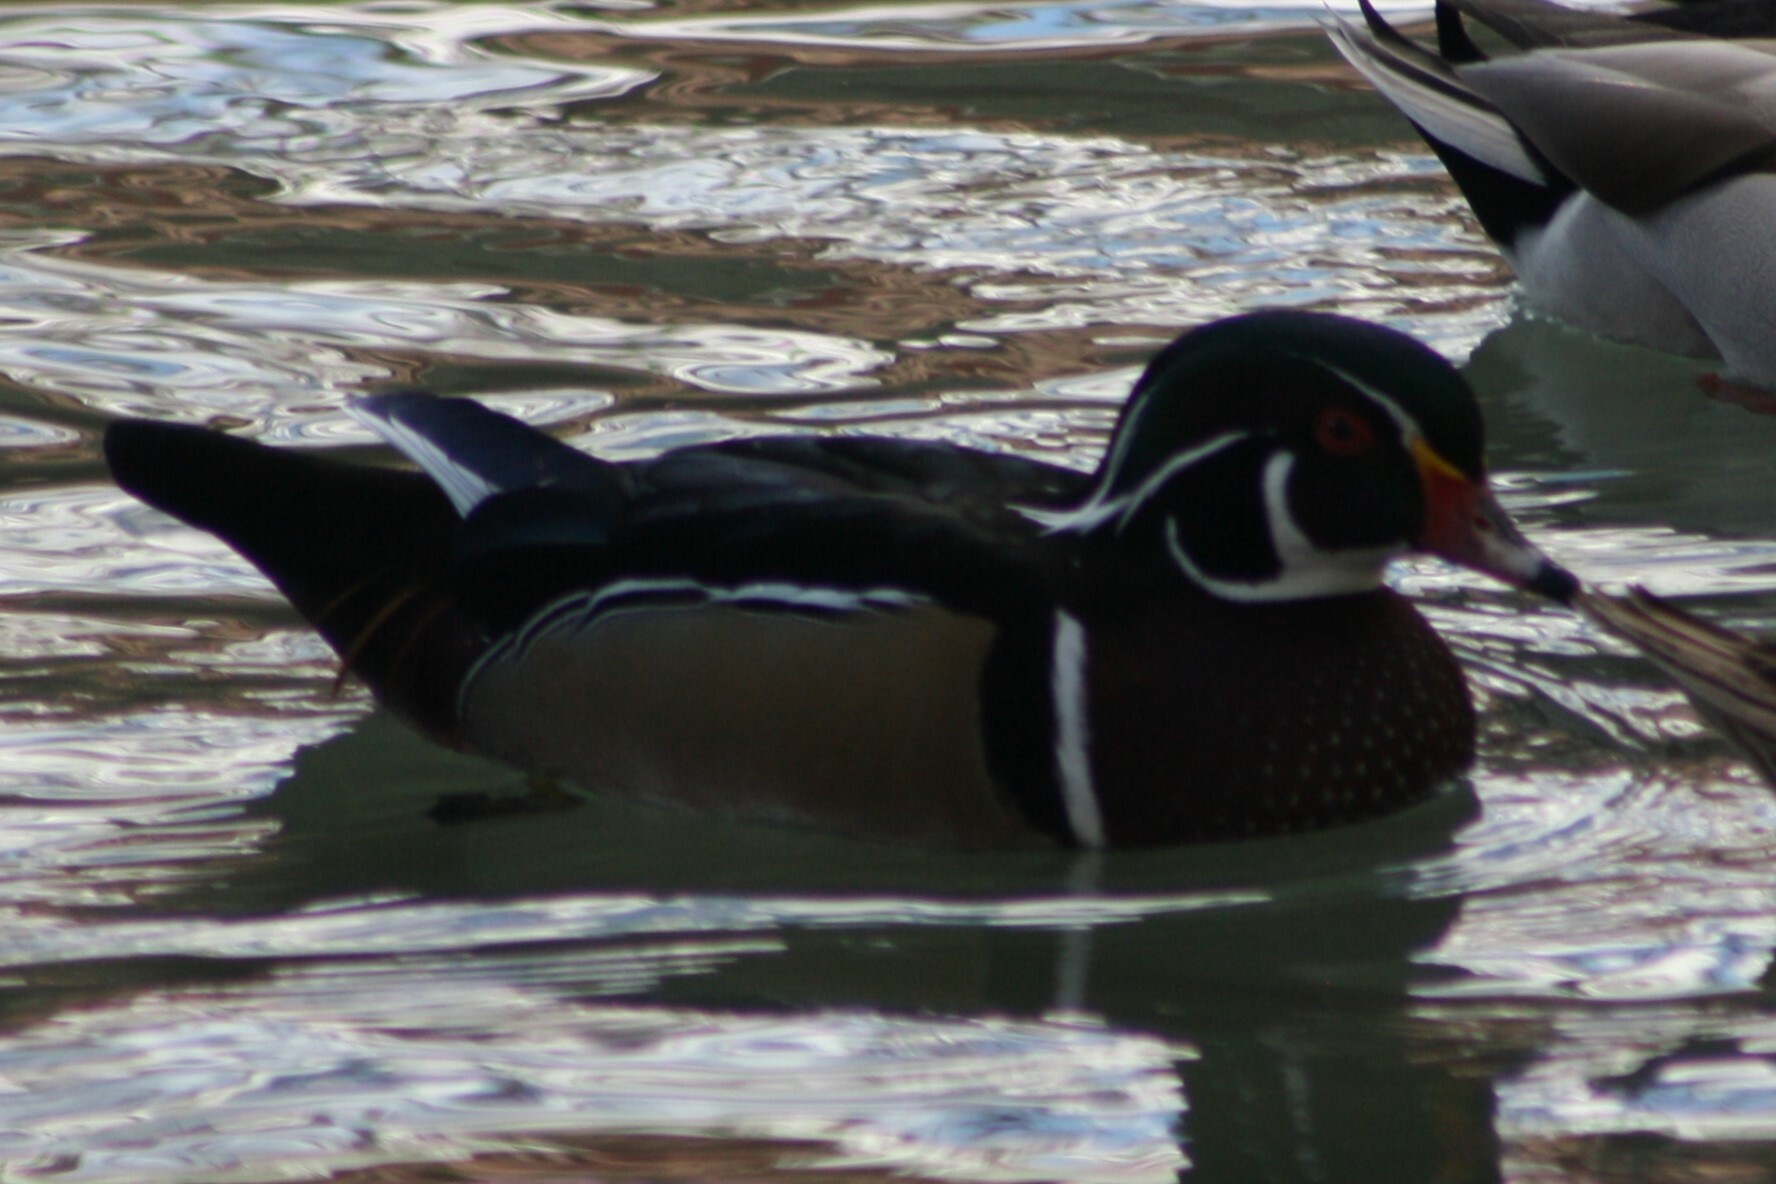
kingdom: Animalia
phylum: Chordata
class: Aves
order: Anseriformes
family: Anatidae
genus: Aix
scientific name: Aix sponsa
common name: Wood duck
